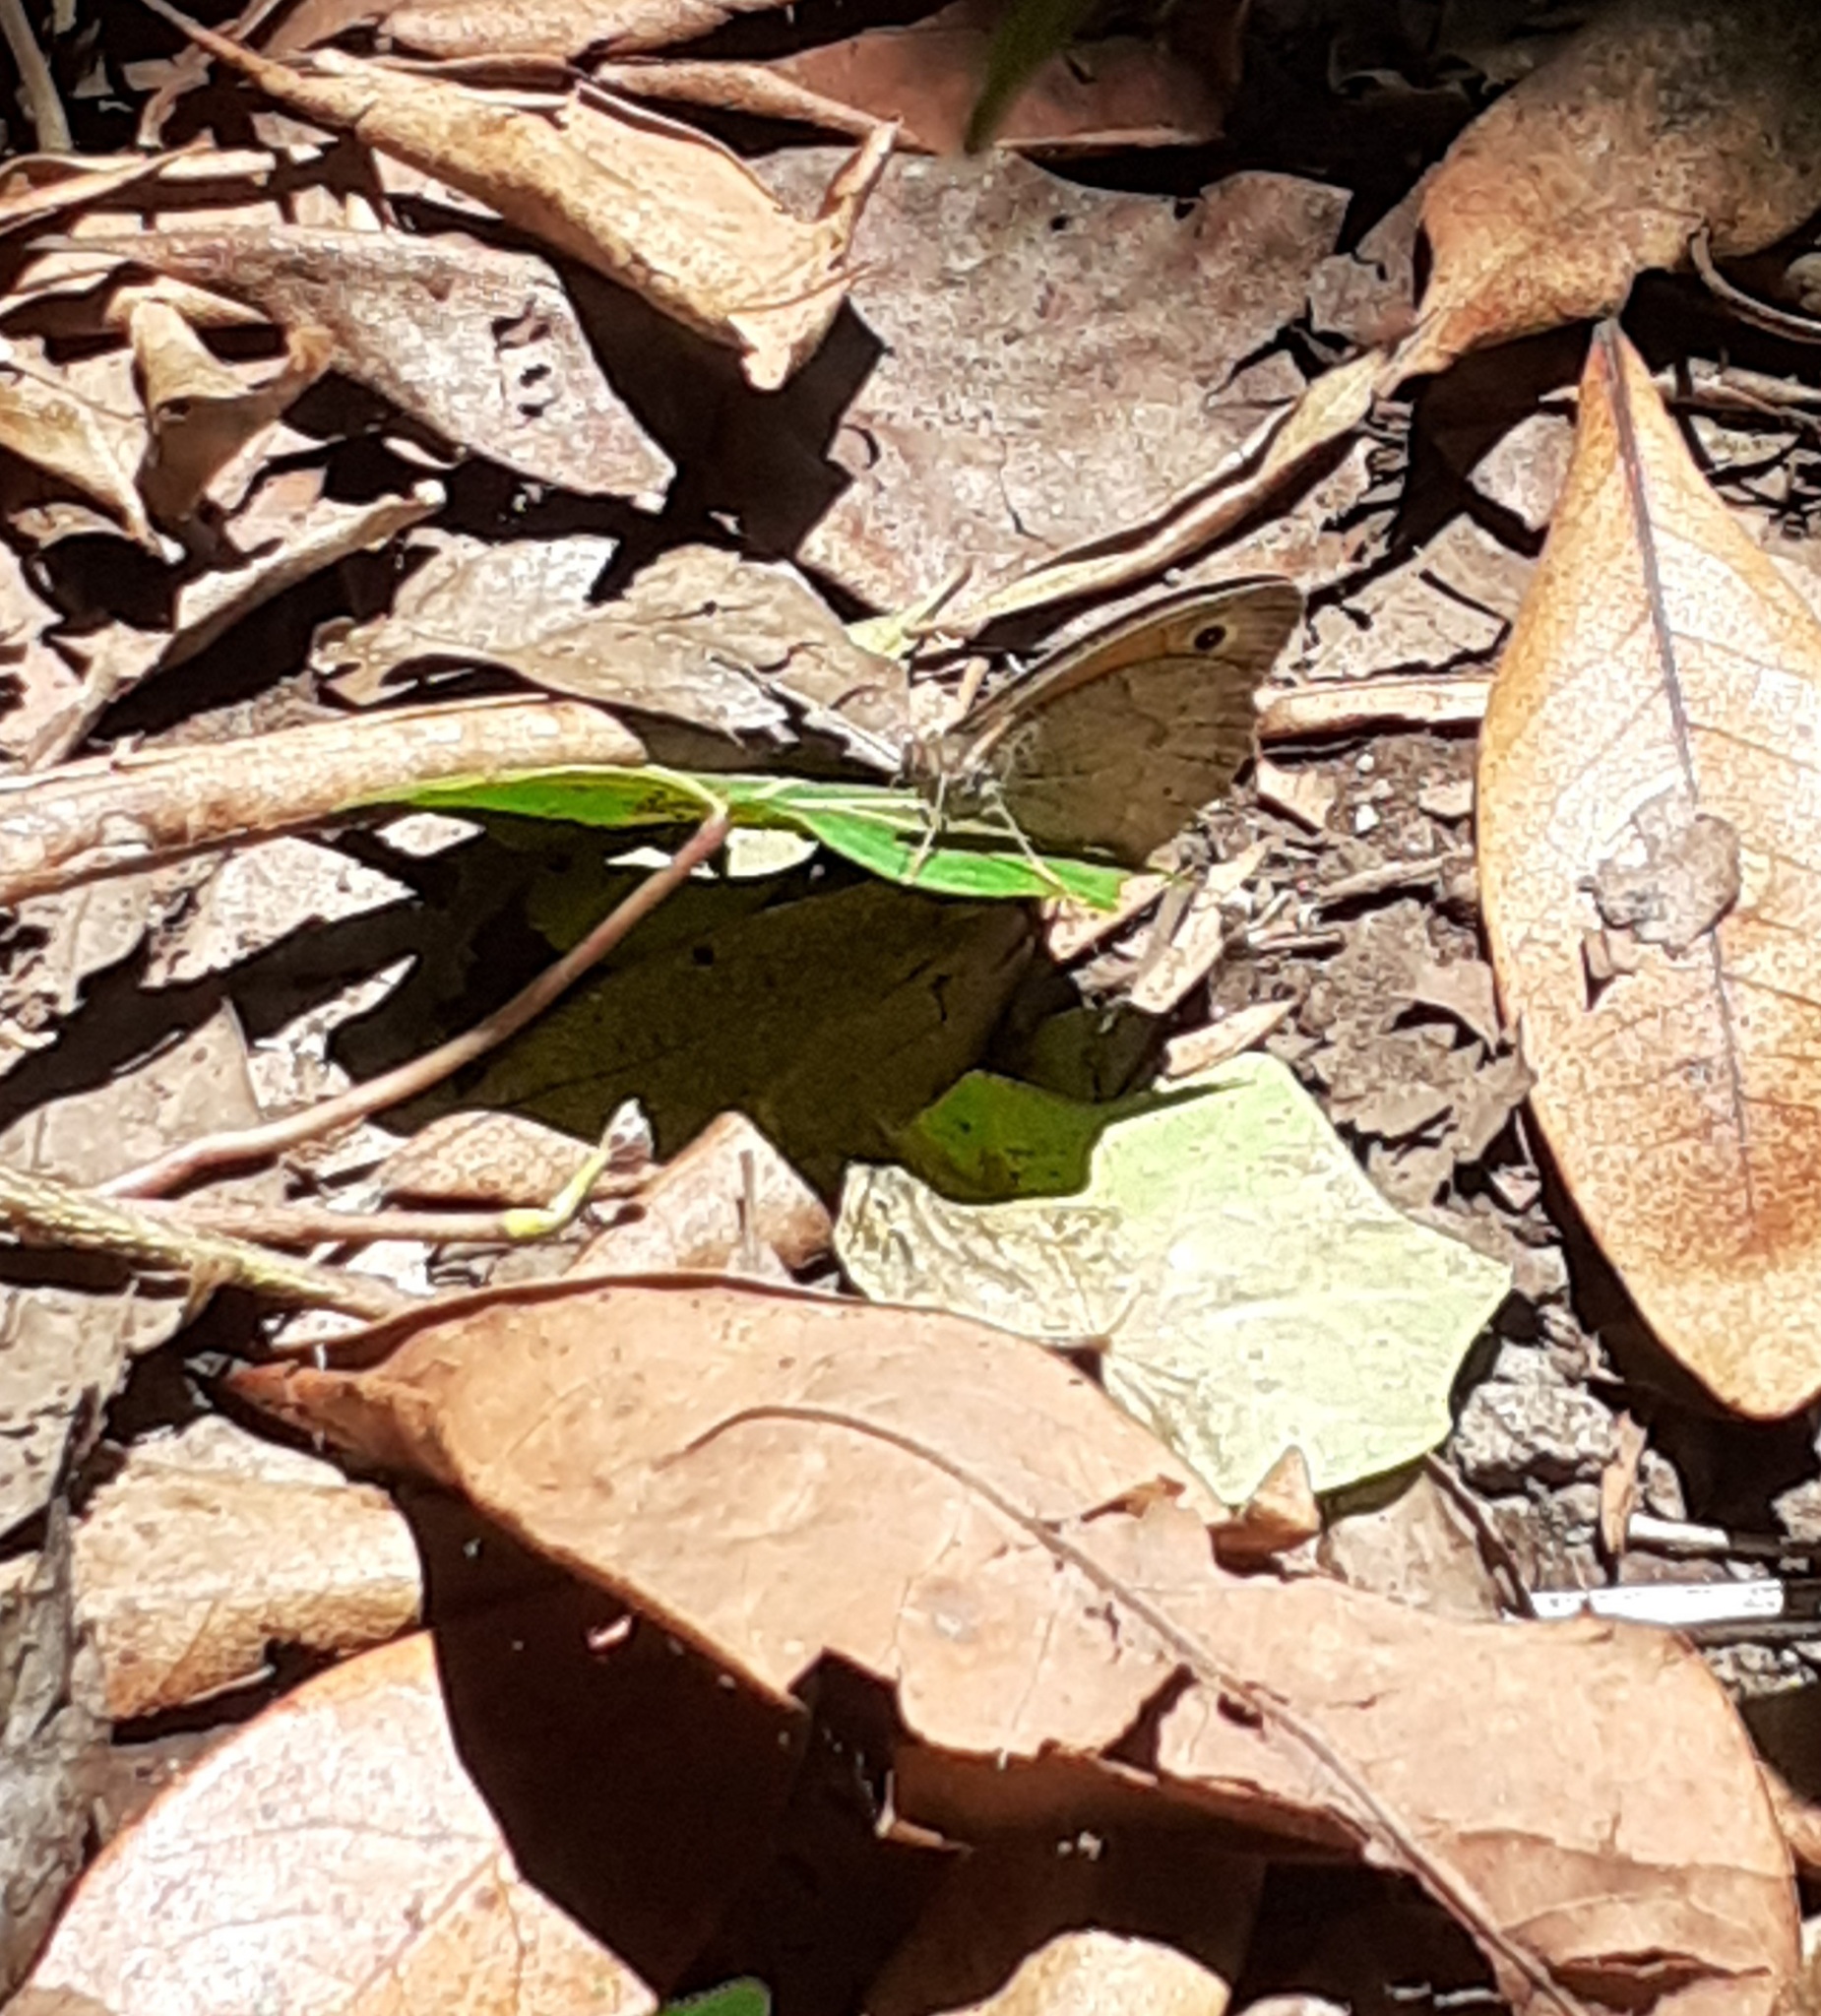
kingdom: Animalia
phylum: Arthropoda
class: Insecta
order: Lepidoptera
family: Nymphalidae
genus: Maniola
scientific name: Maniola jurtina
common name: Meadow brown
